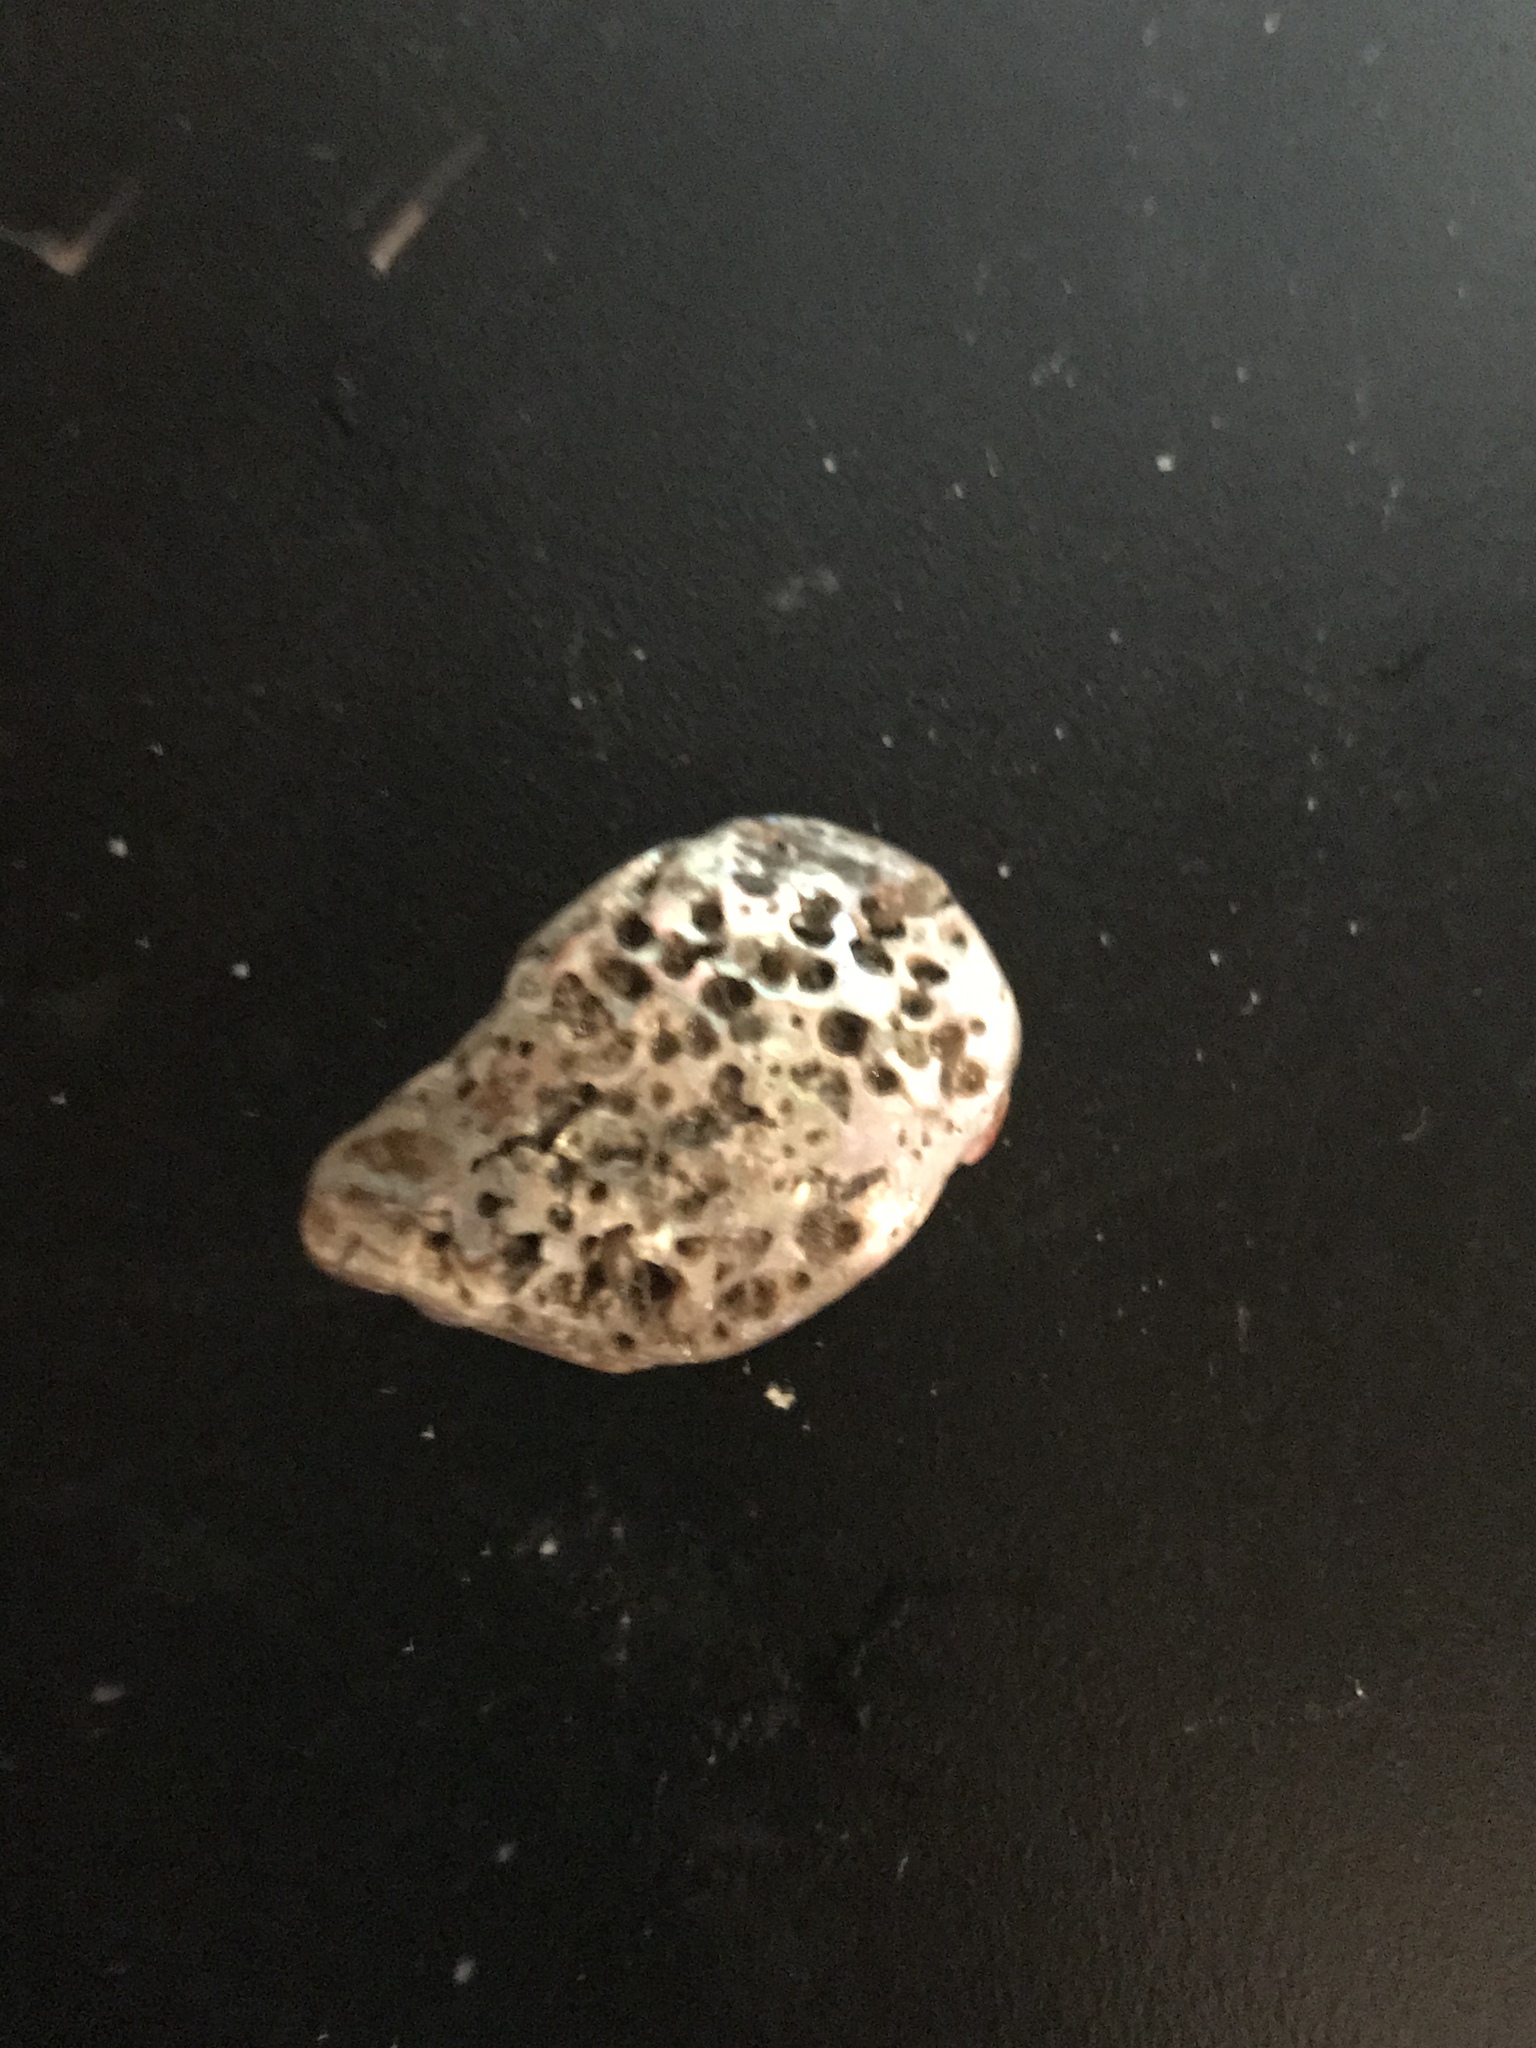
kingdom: Animalia
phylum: Mollusca
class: Gastropoda
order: Lepetellida
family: Haliotidae
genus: Haliotis
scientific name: Haliotis rufescens
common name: Red abalone
